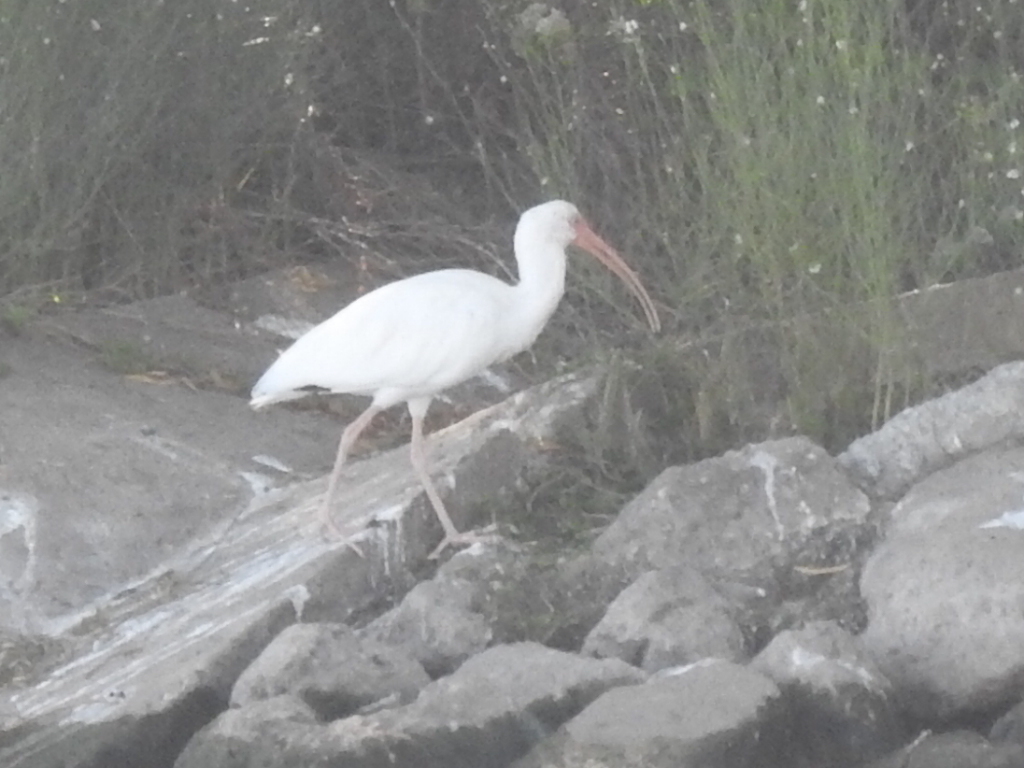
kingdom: Animalia
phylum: Chordata
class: Aves
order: Pelecaniformes
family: Threskiornithidae
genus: Eudocimus
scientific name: Eudocimus albus
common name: White ibis
